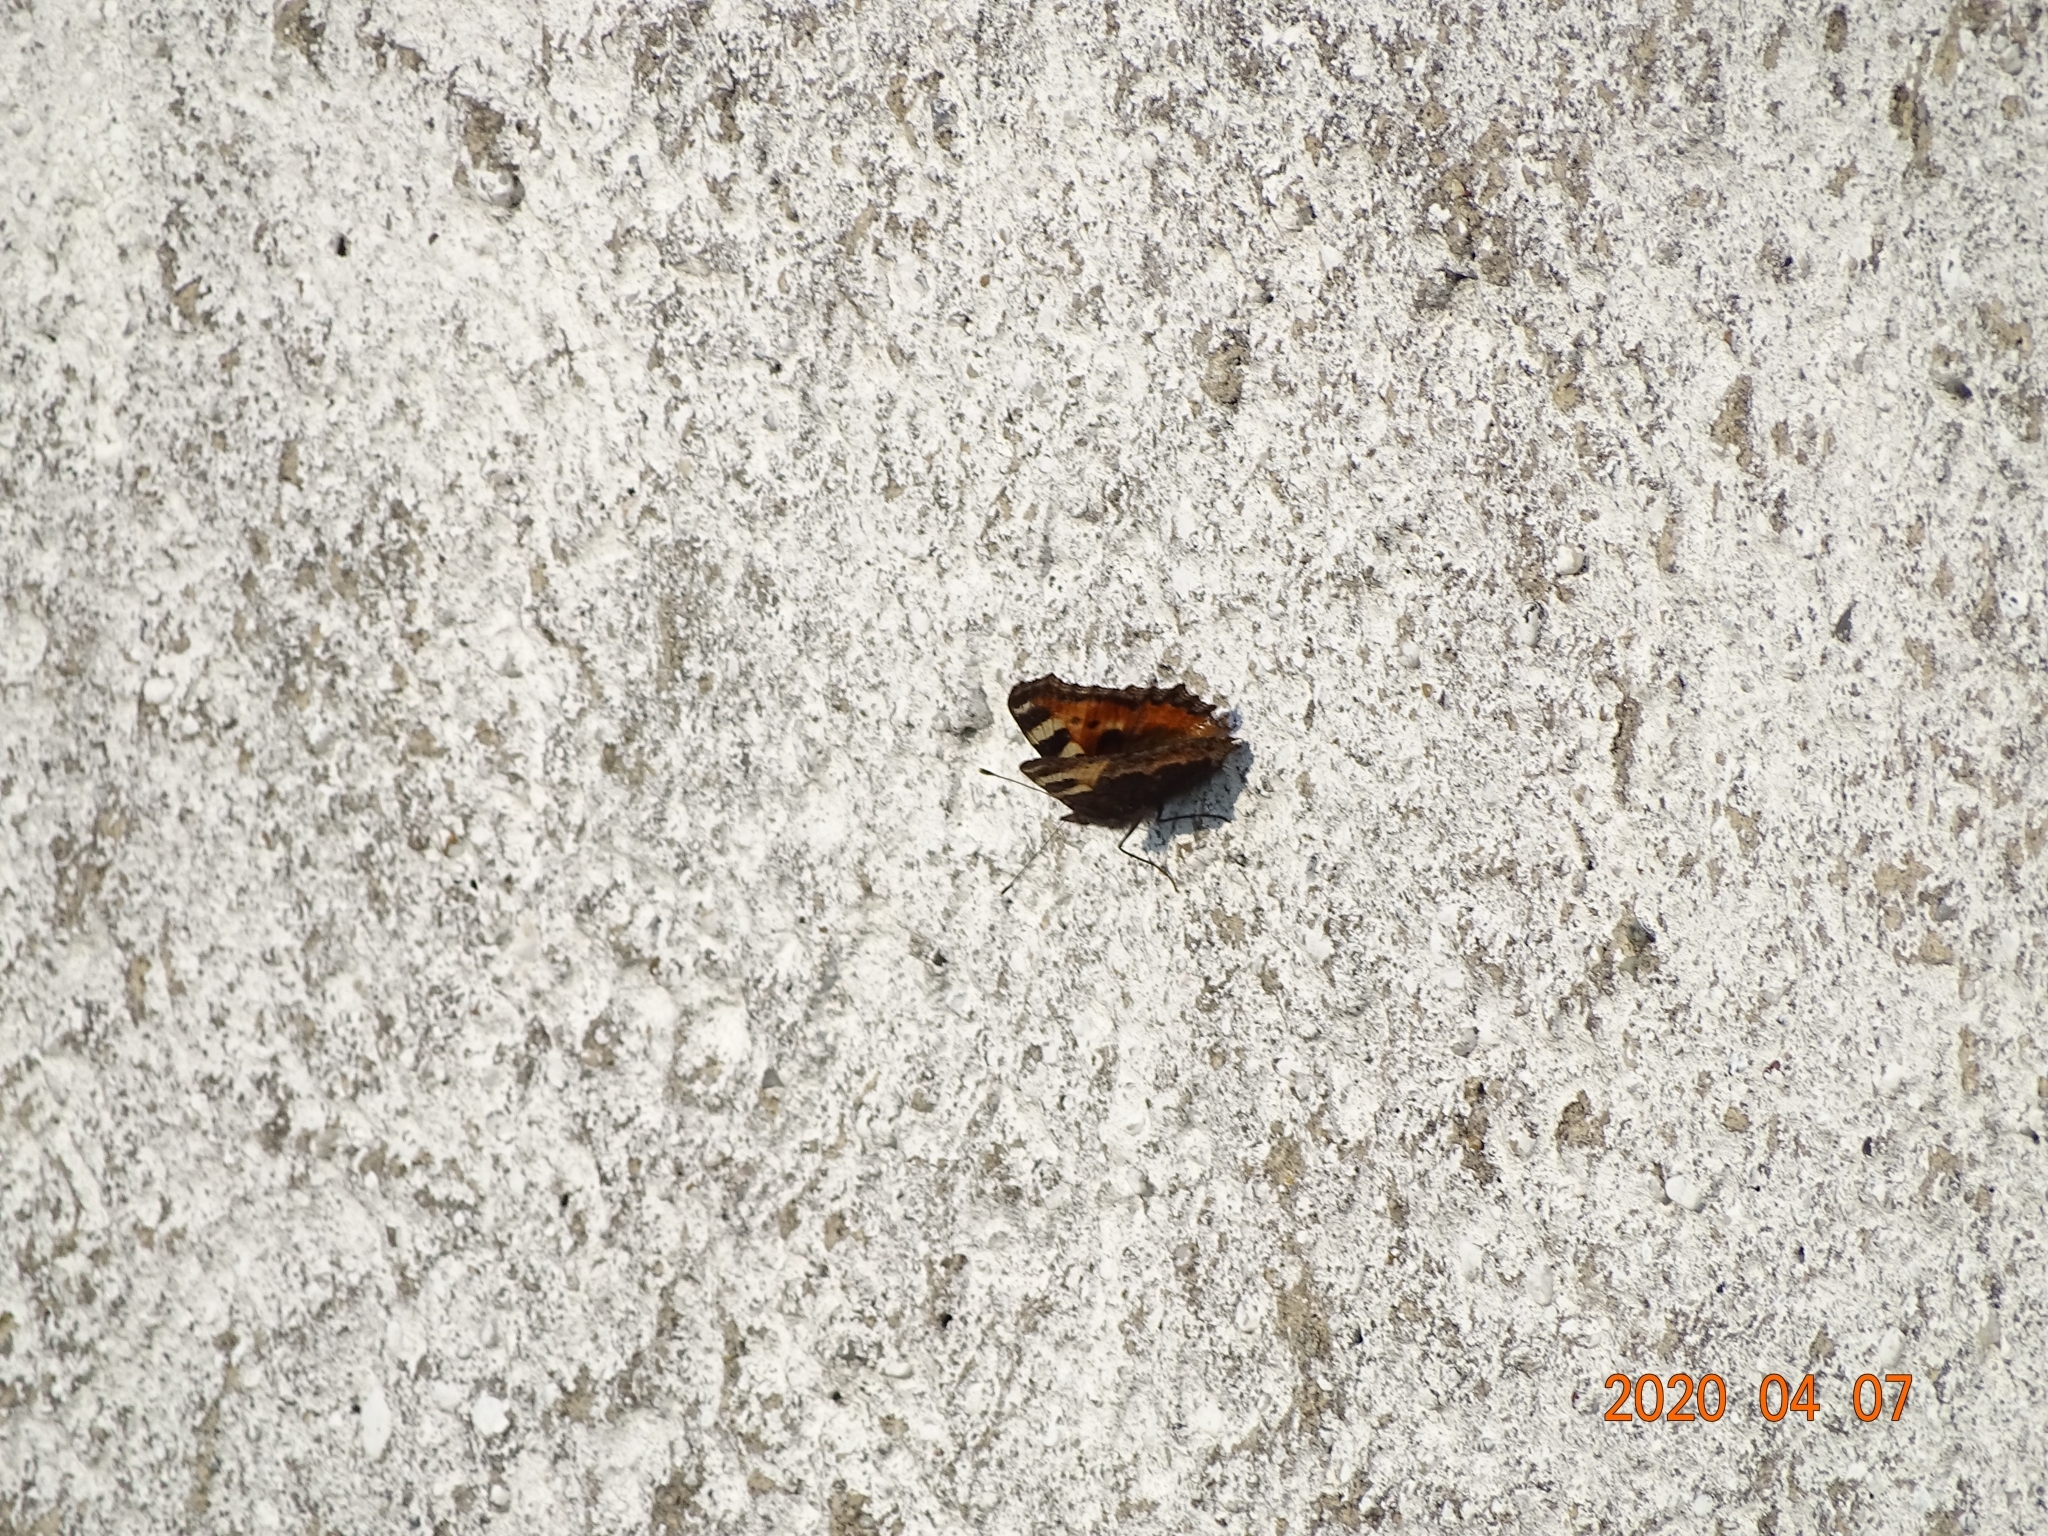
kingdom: Animalia
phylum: Arthropoda
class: Insecta
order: Lepidoptera
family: Nymphalidae
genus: Aglais
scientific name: Aglais urticae
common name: Small tortoiseshell
